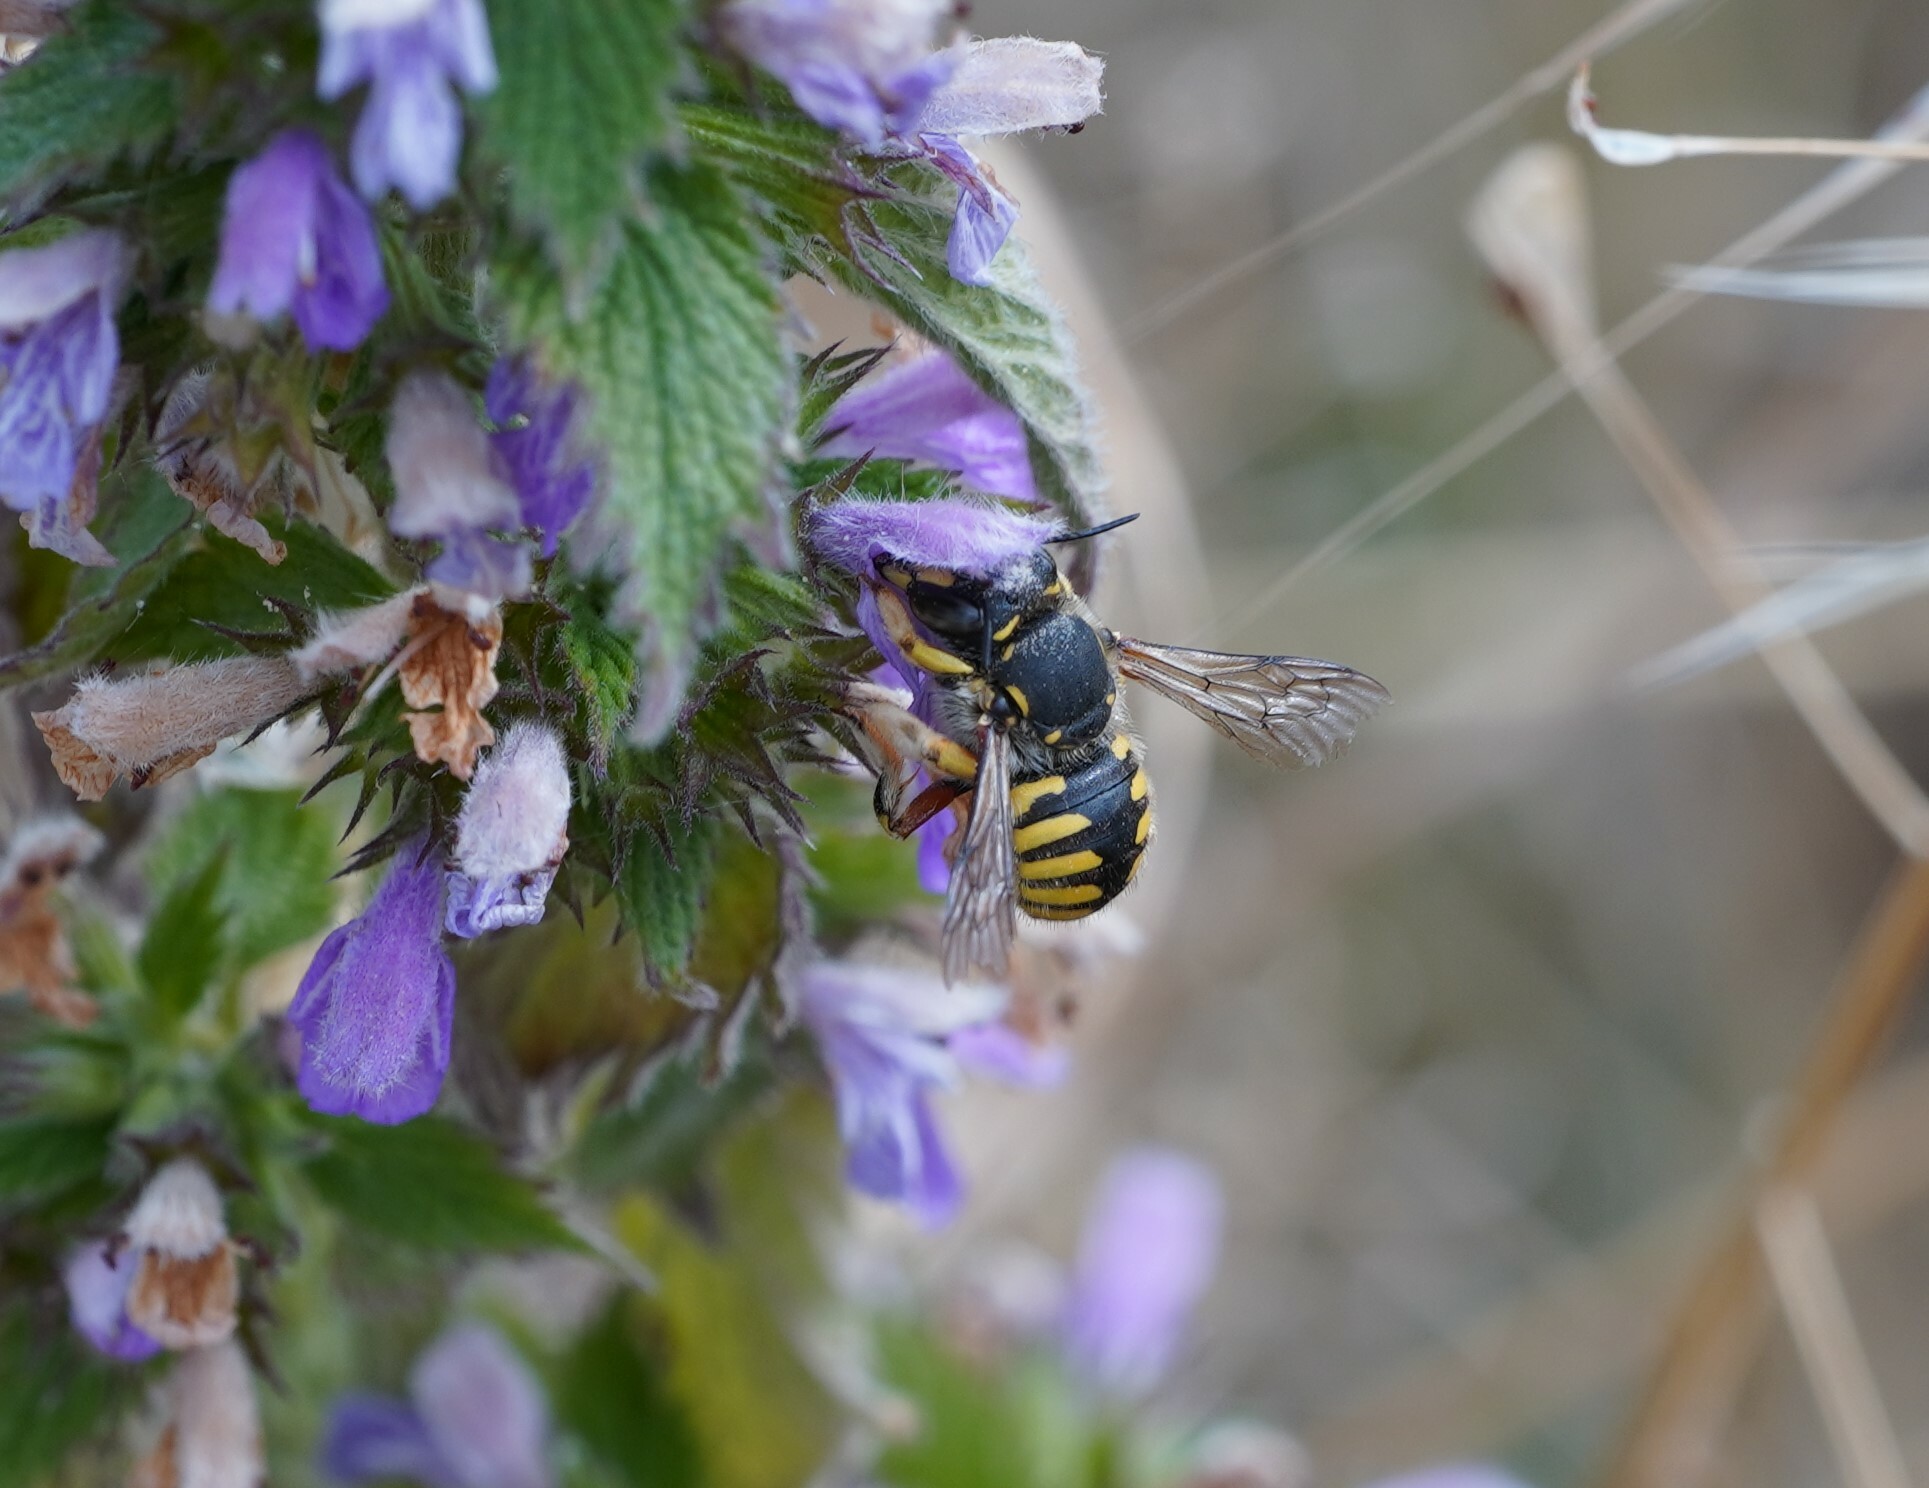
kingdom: Animalia
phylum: Arthropoda
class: Insecta
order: Hymenoptera
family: Megachilidae
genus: Anthidium
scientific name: Anthidium manicatum
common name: Wool carder bee
